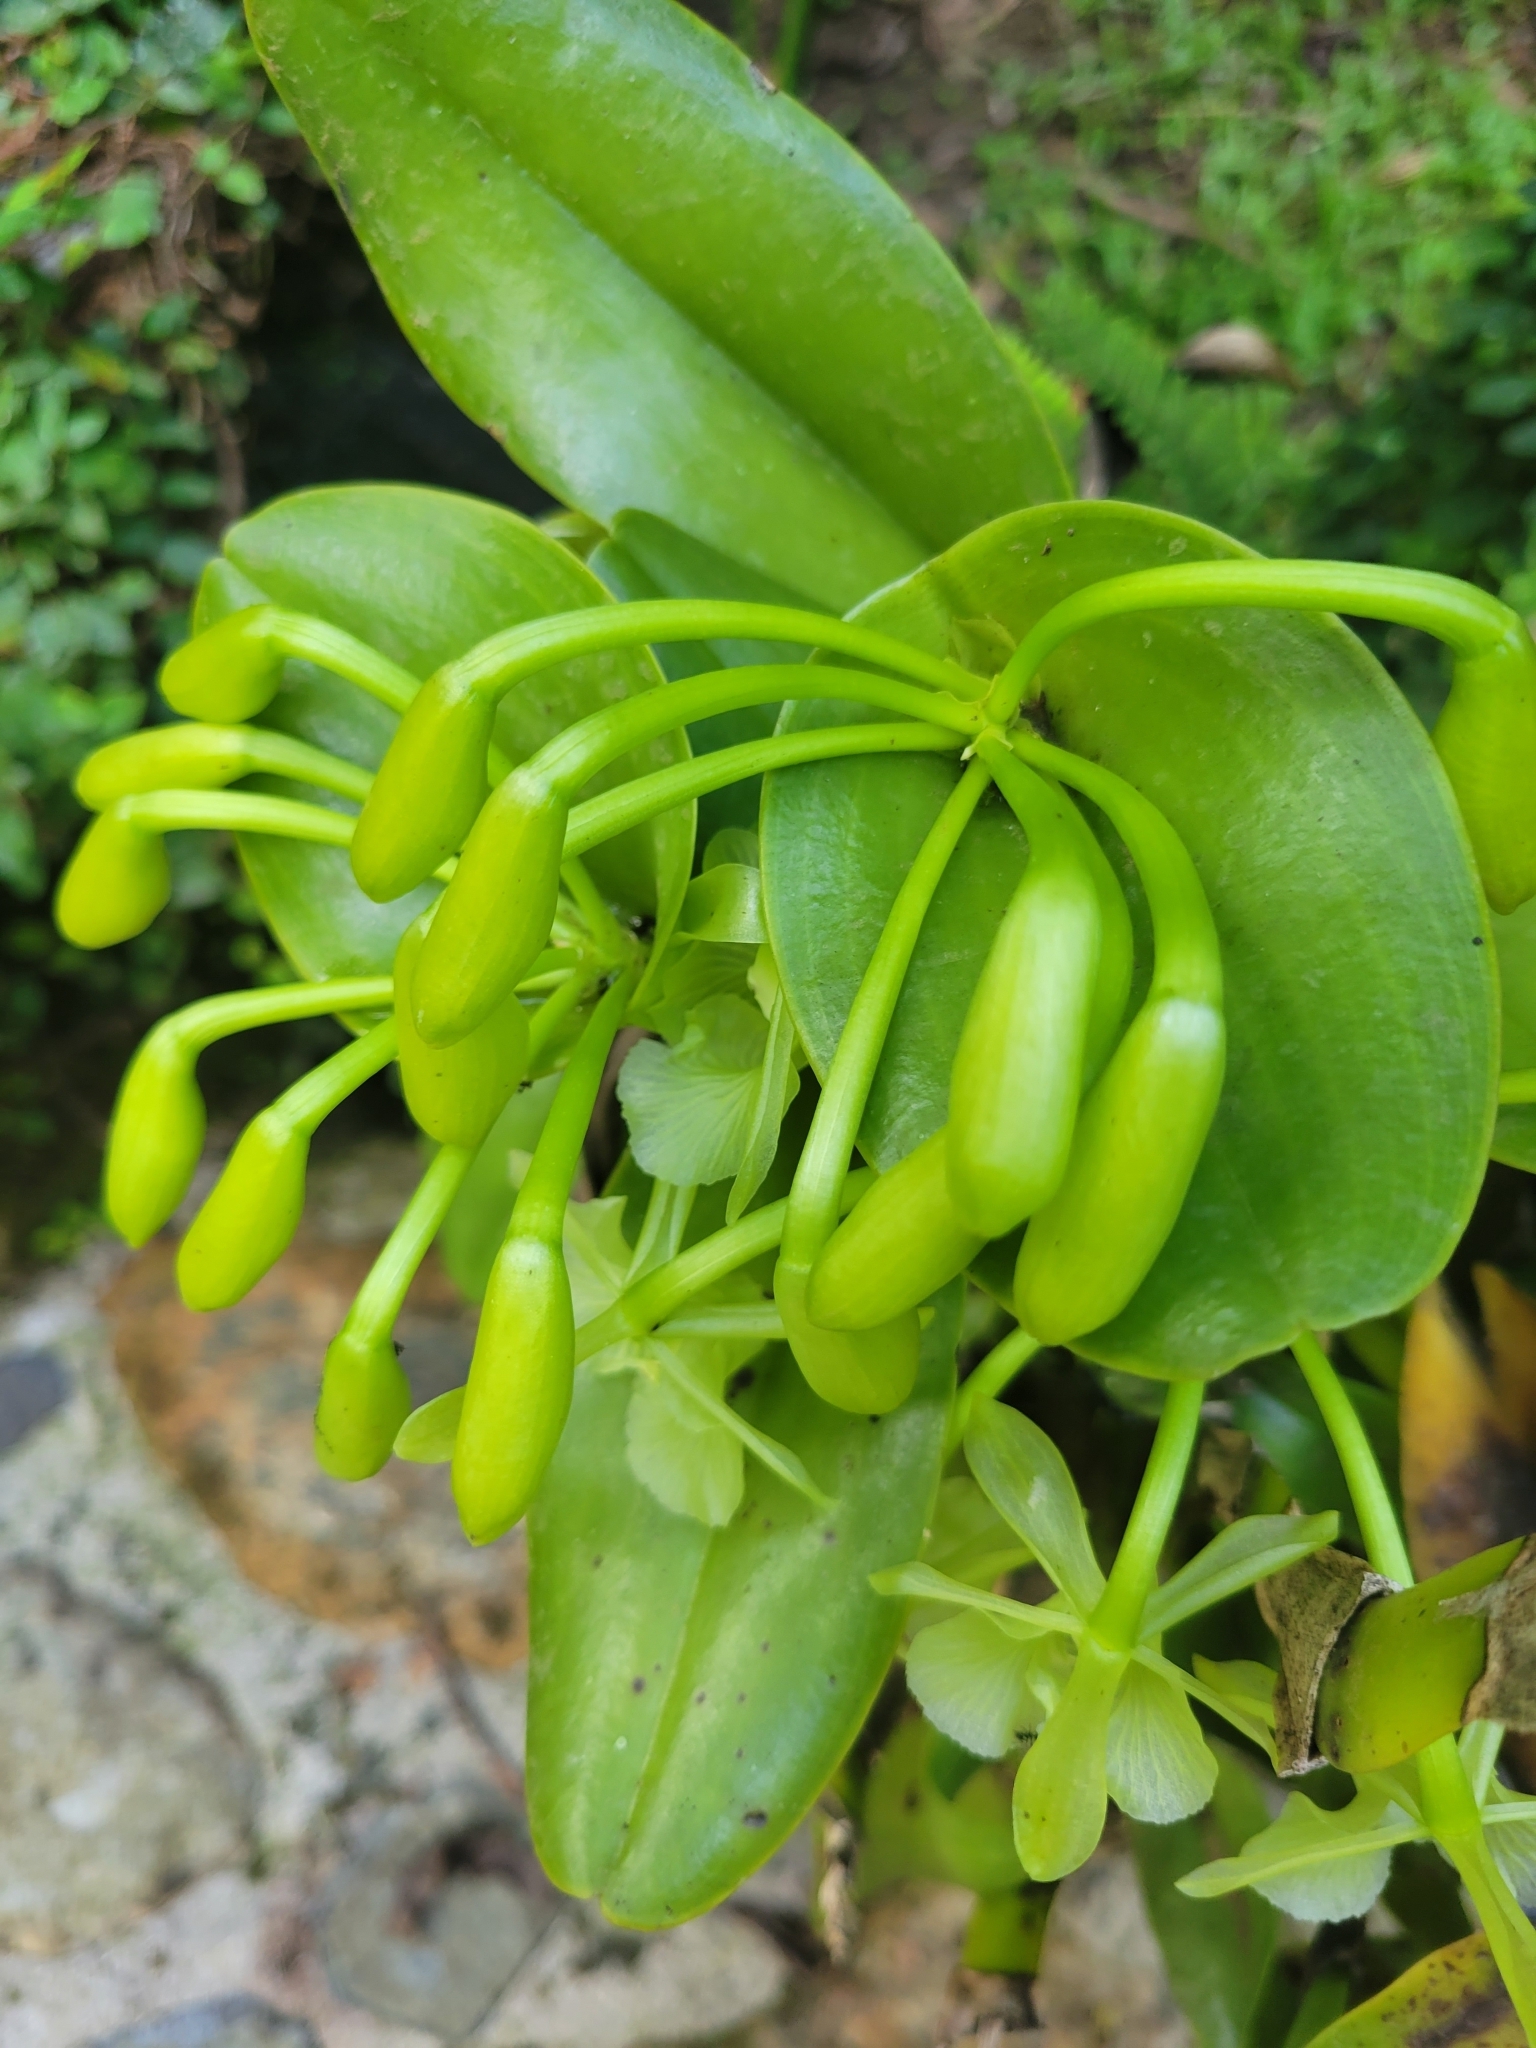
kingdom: Plantae
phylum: Tracheophyta
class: Liliopsida
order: Asparagales
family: Orchidaceae
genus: Epidendrum
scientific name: Epidendrum barbeyanum
